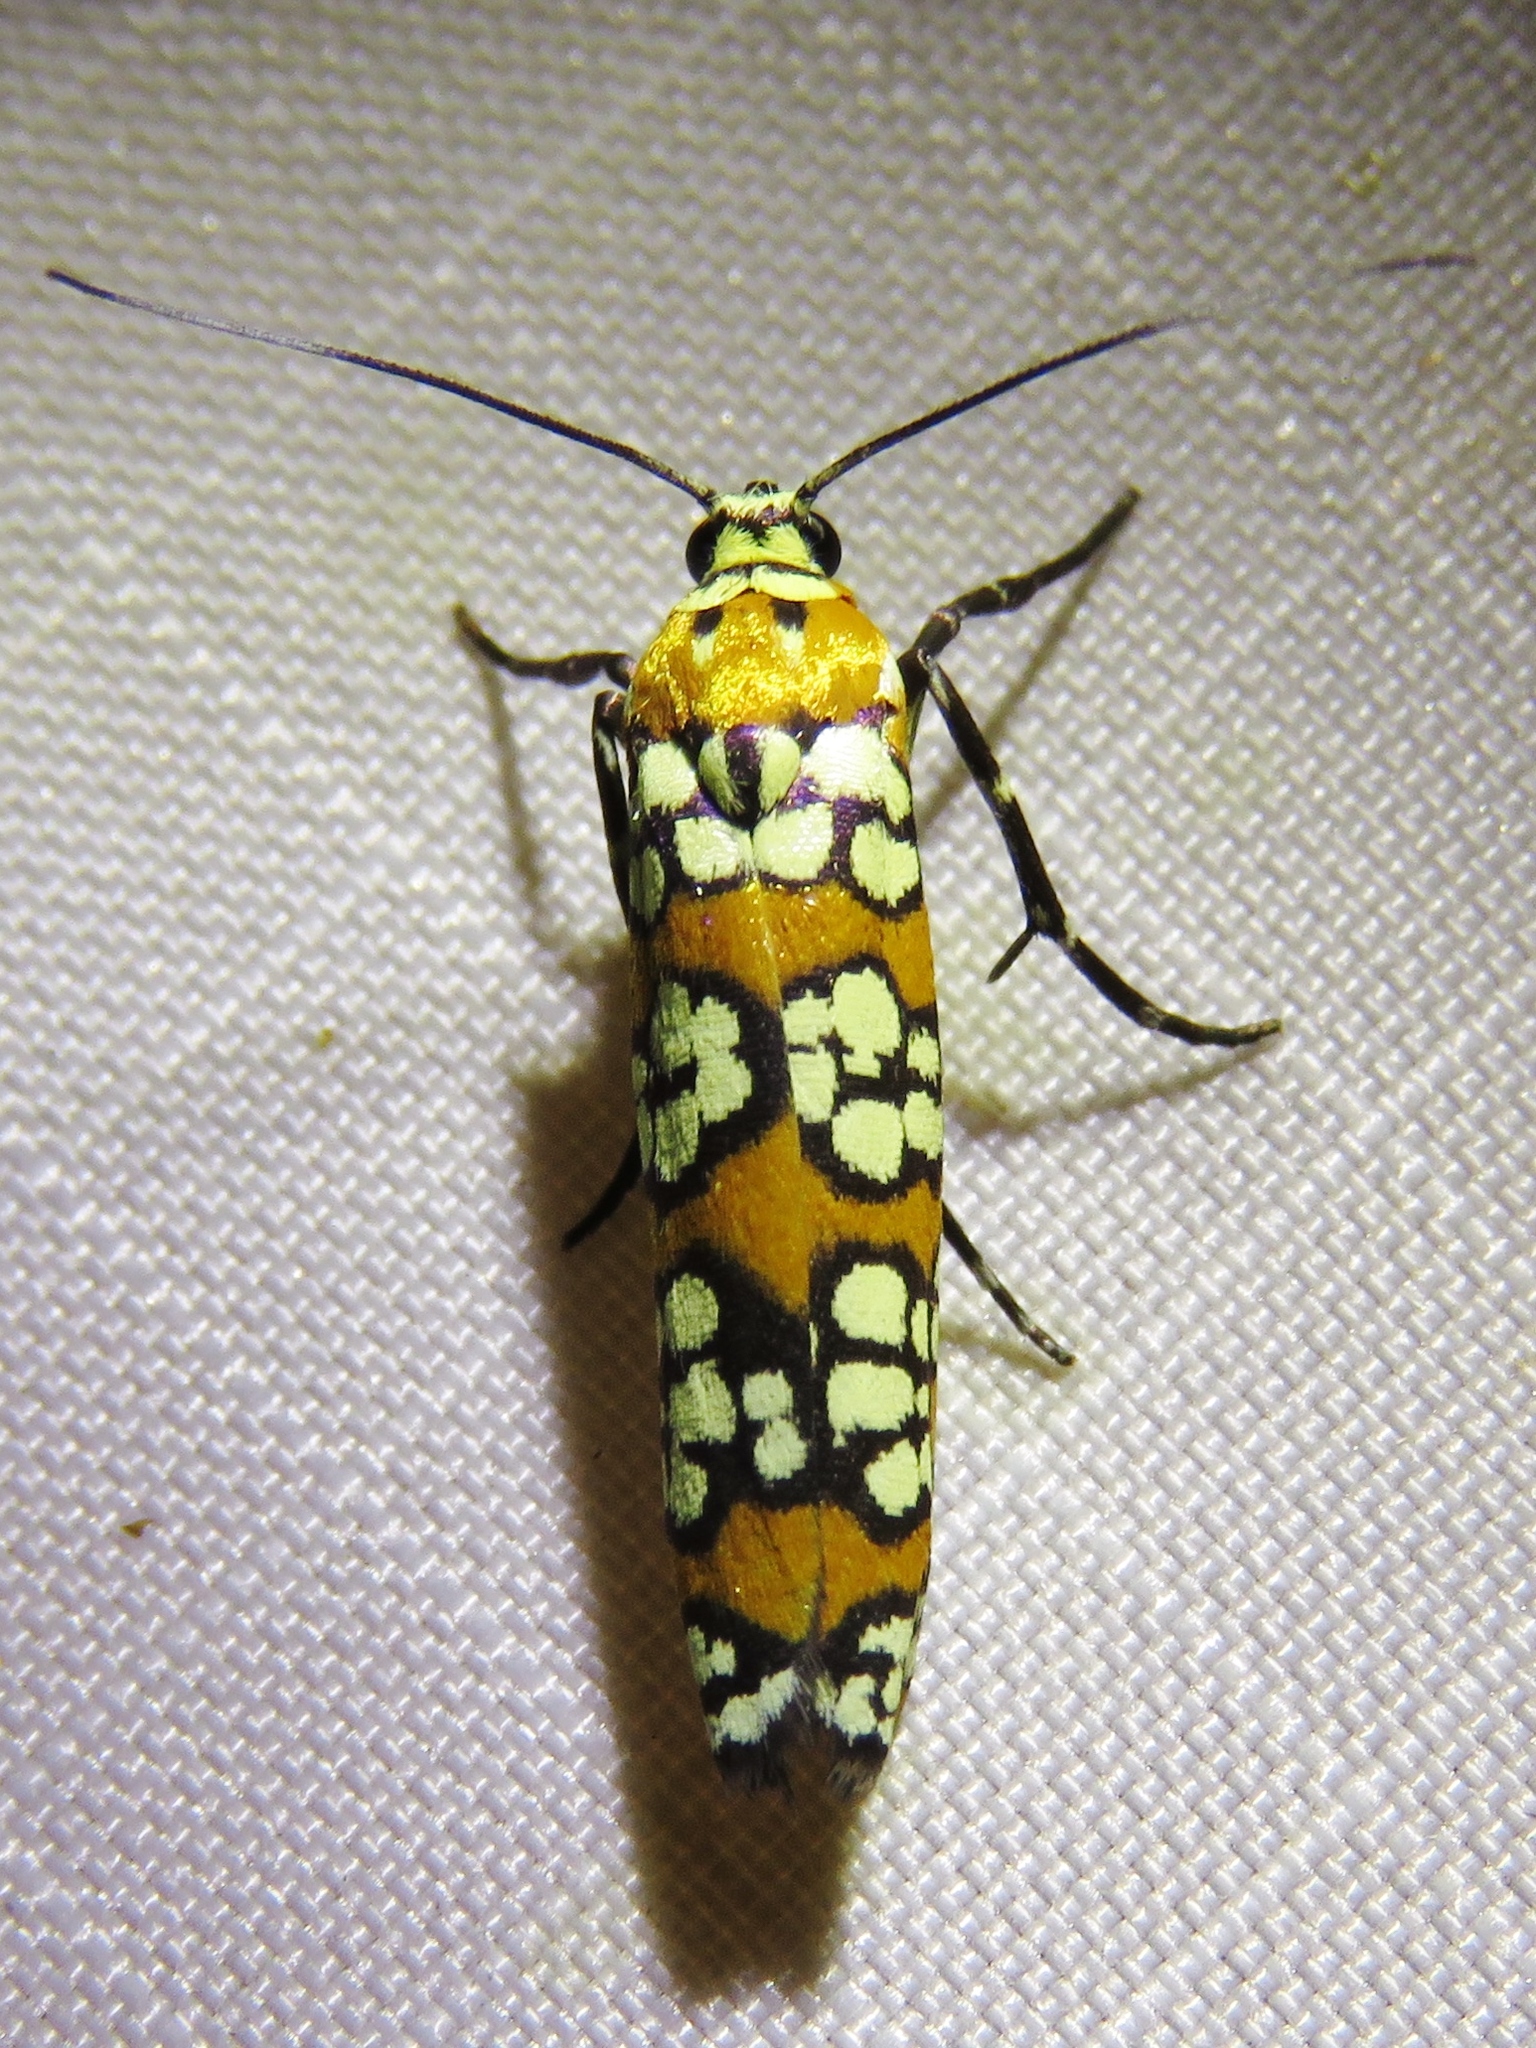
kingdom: Animalia
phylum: Arthropoda
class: Insecta
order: Lepidoptera
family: Attevidae
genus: Atteva
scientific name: Atteva punctella
